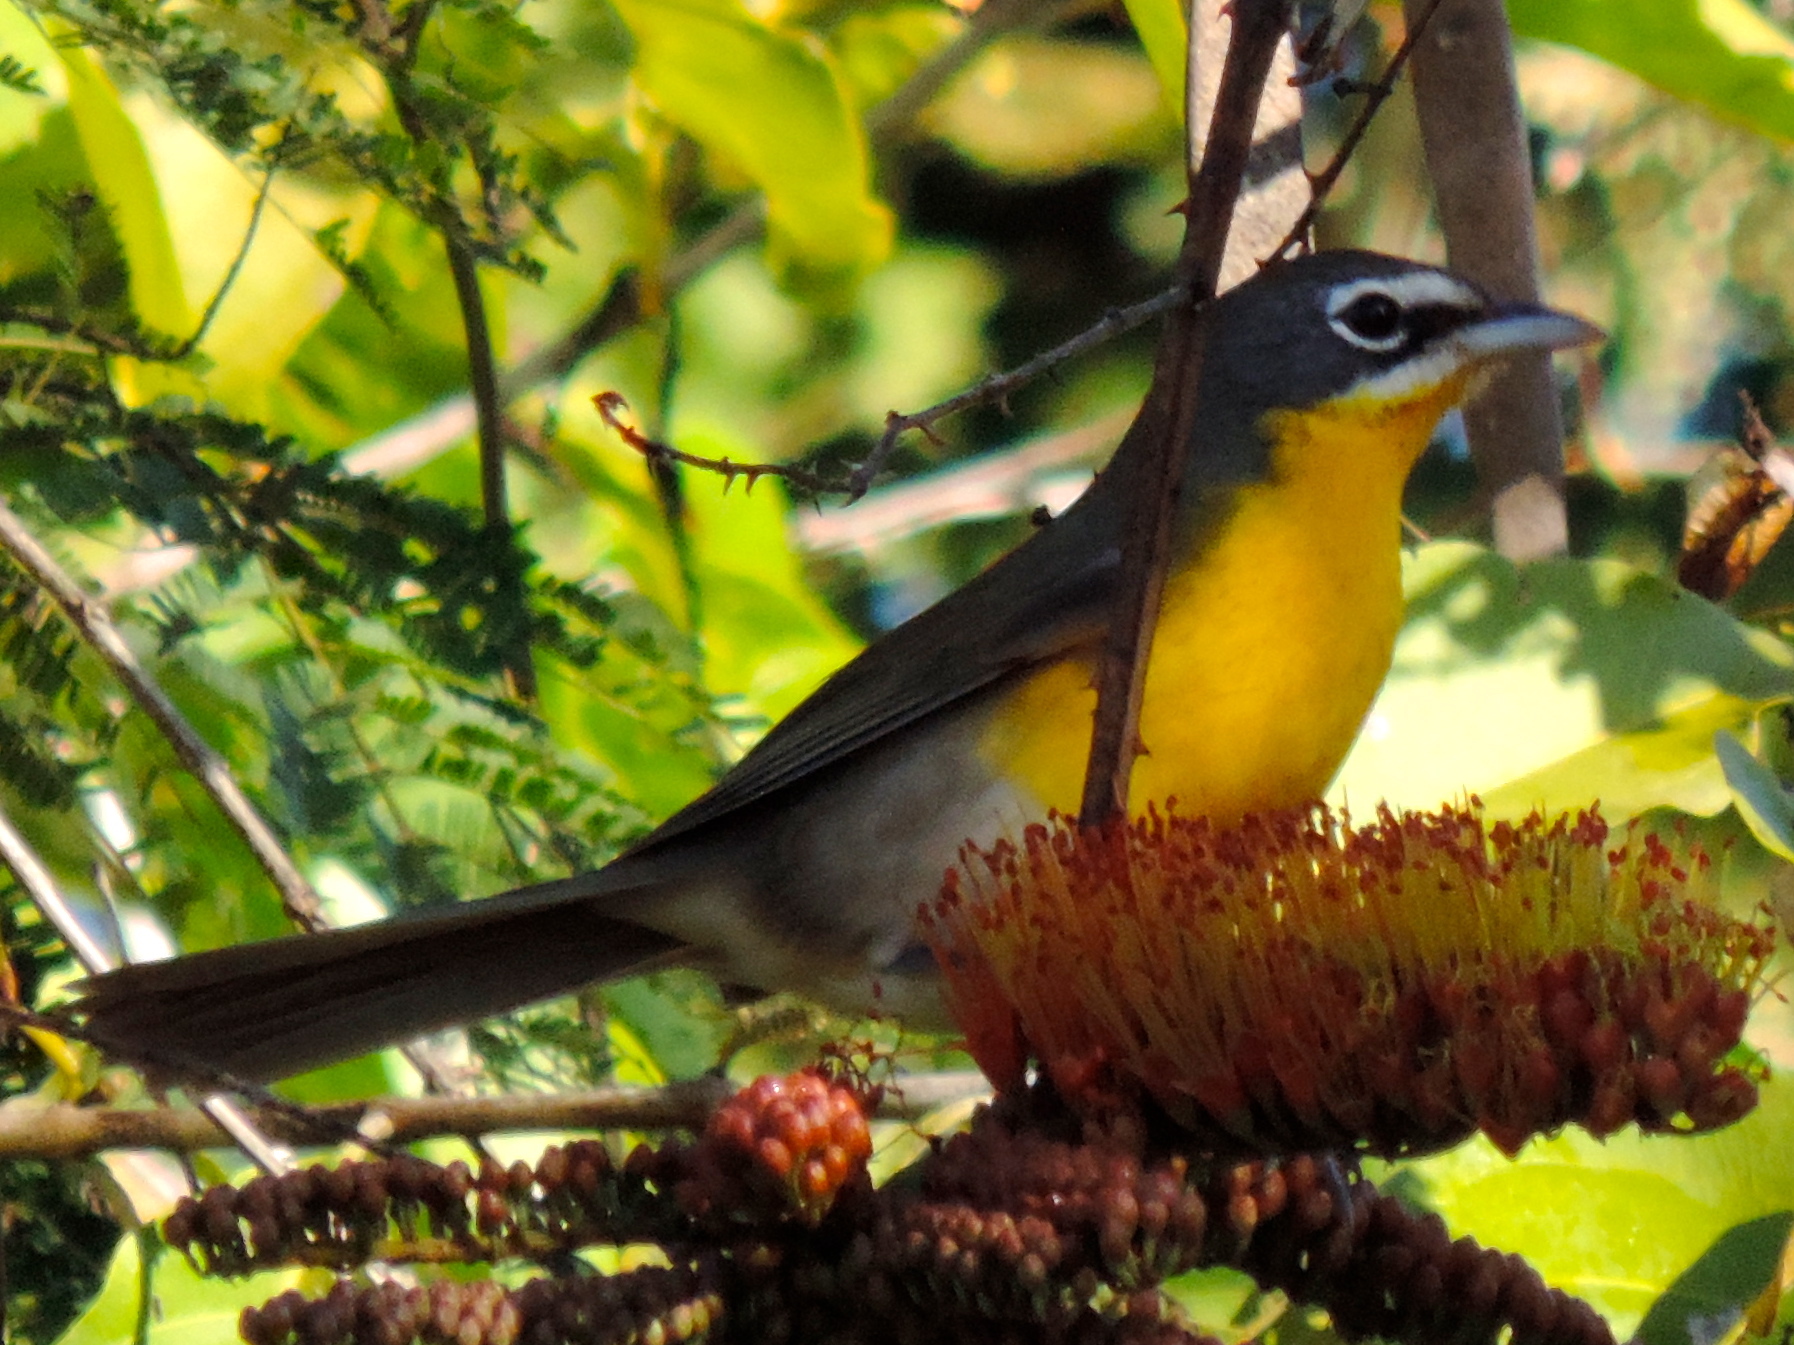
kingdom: Animalia
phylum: Chordata
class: Aves
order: Passeriformes
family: Parulidae
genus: Icteria
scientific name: Icteria virens
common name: Yellow-breasted chat
